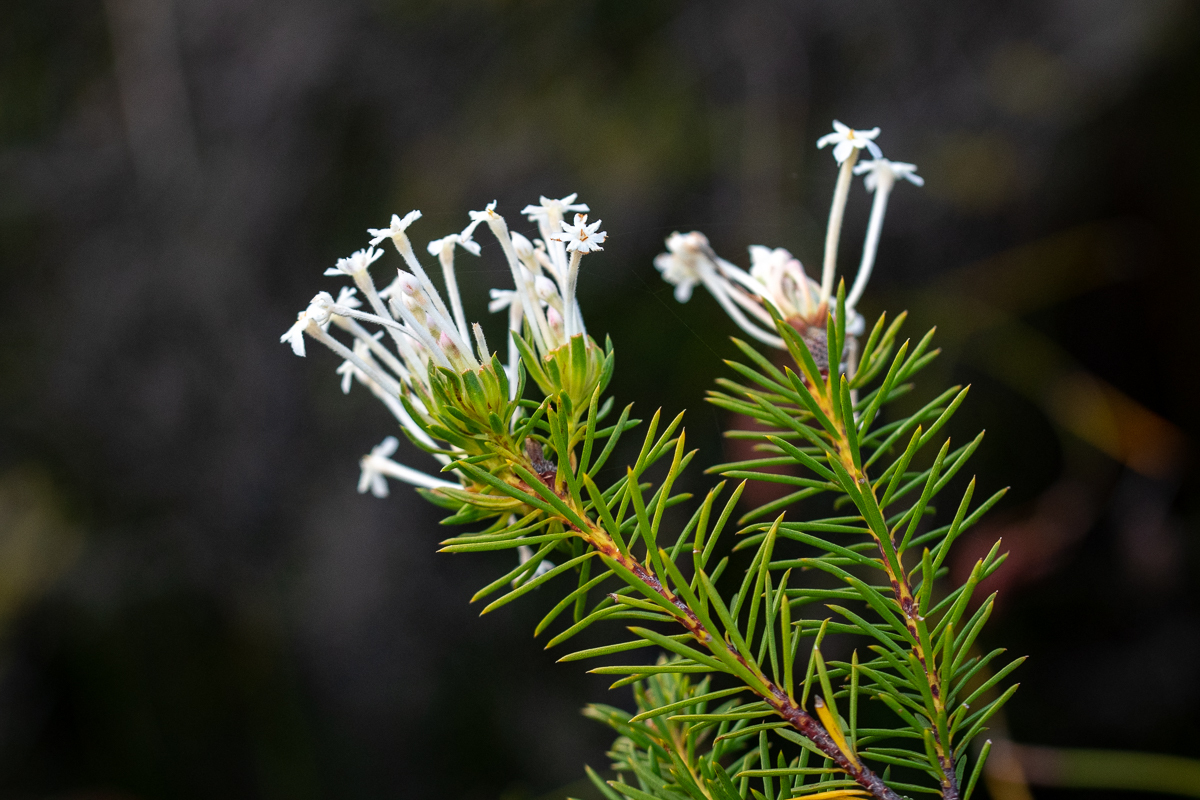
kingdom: Plantae
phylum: Tracheophyta
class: Magnoliopsida
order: Malvales
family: Thymelaeaceae
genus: Gnidia
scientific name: Gnidia pinifolia
